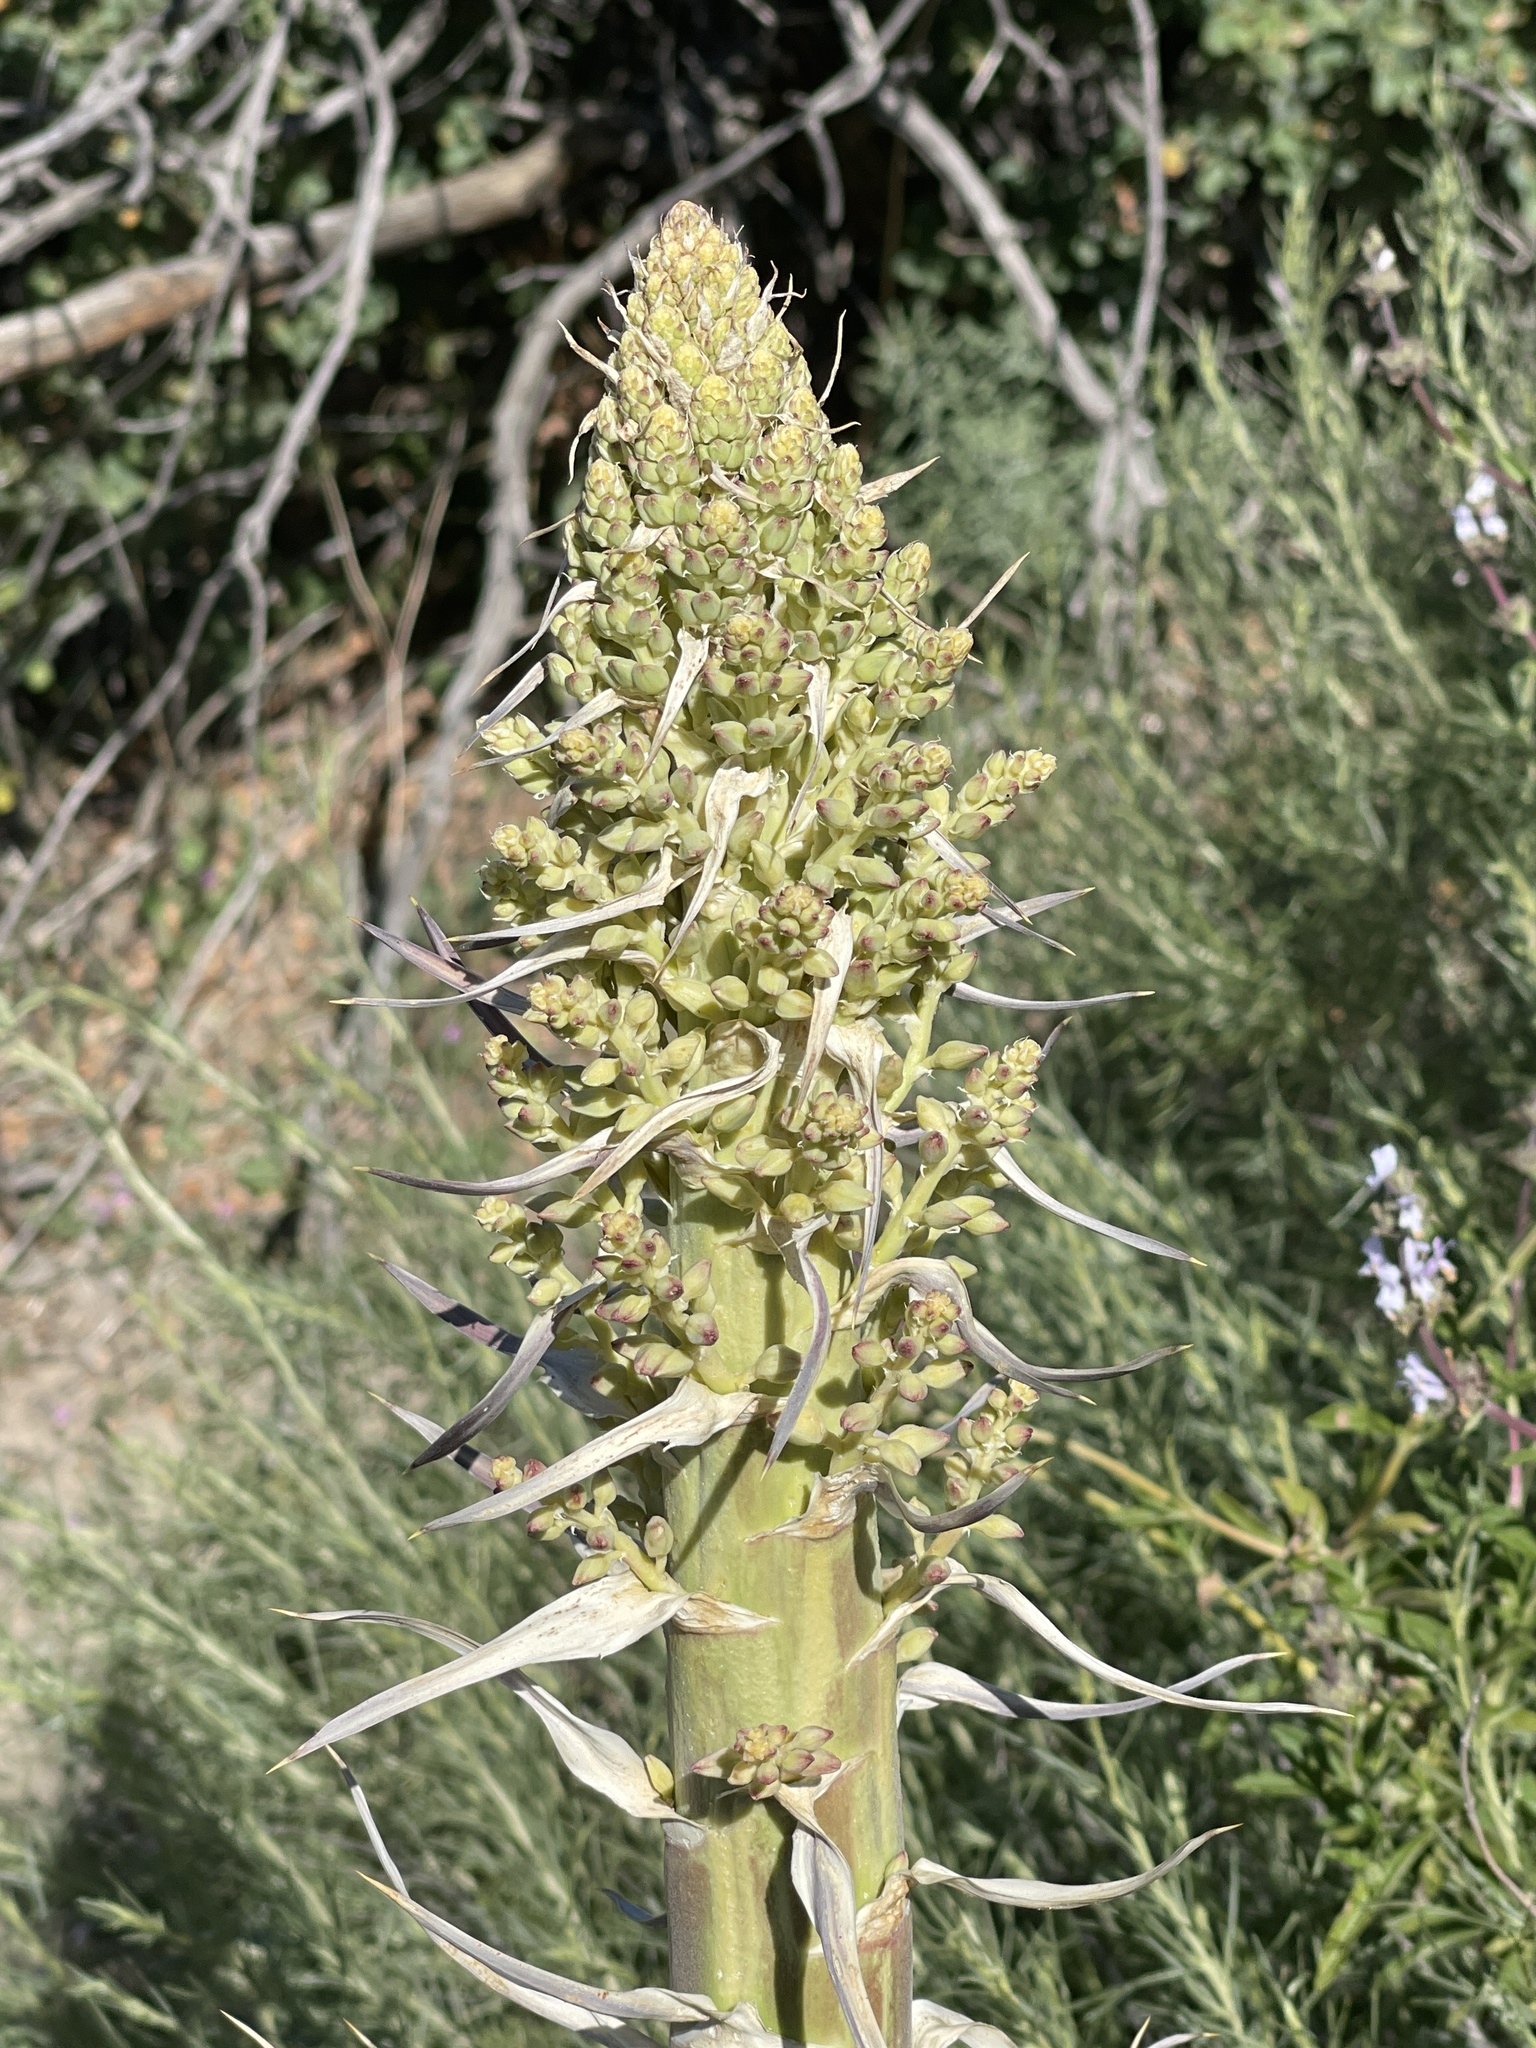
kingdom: Plantae
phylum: Tracheophyta
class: Liliopsida
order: Asparagales
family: Asparagaceae
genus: Hesperoyucca
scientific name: Hesperoyucca whipplei
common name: Our lord's-candle
